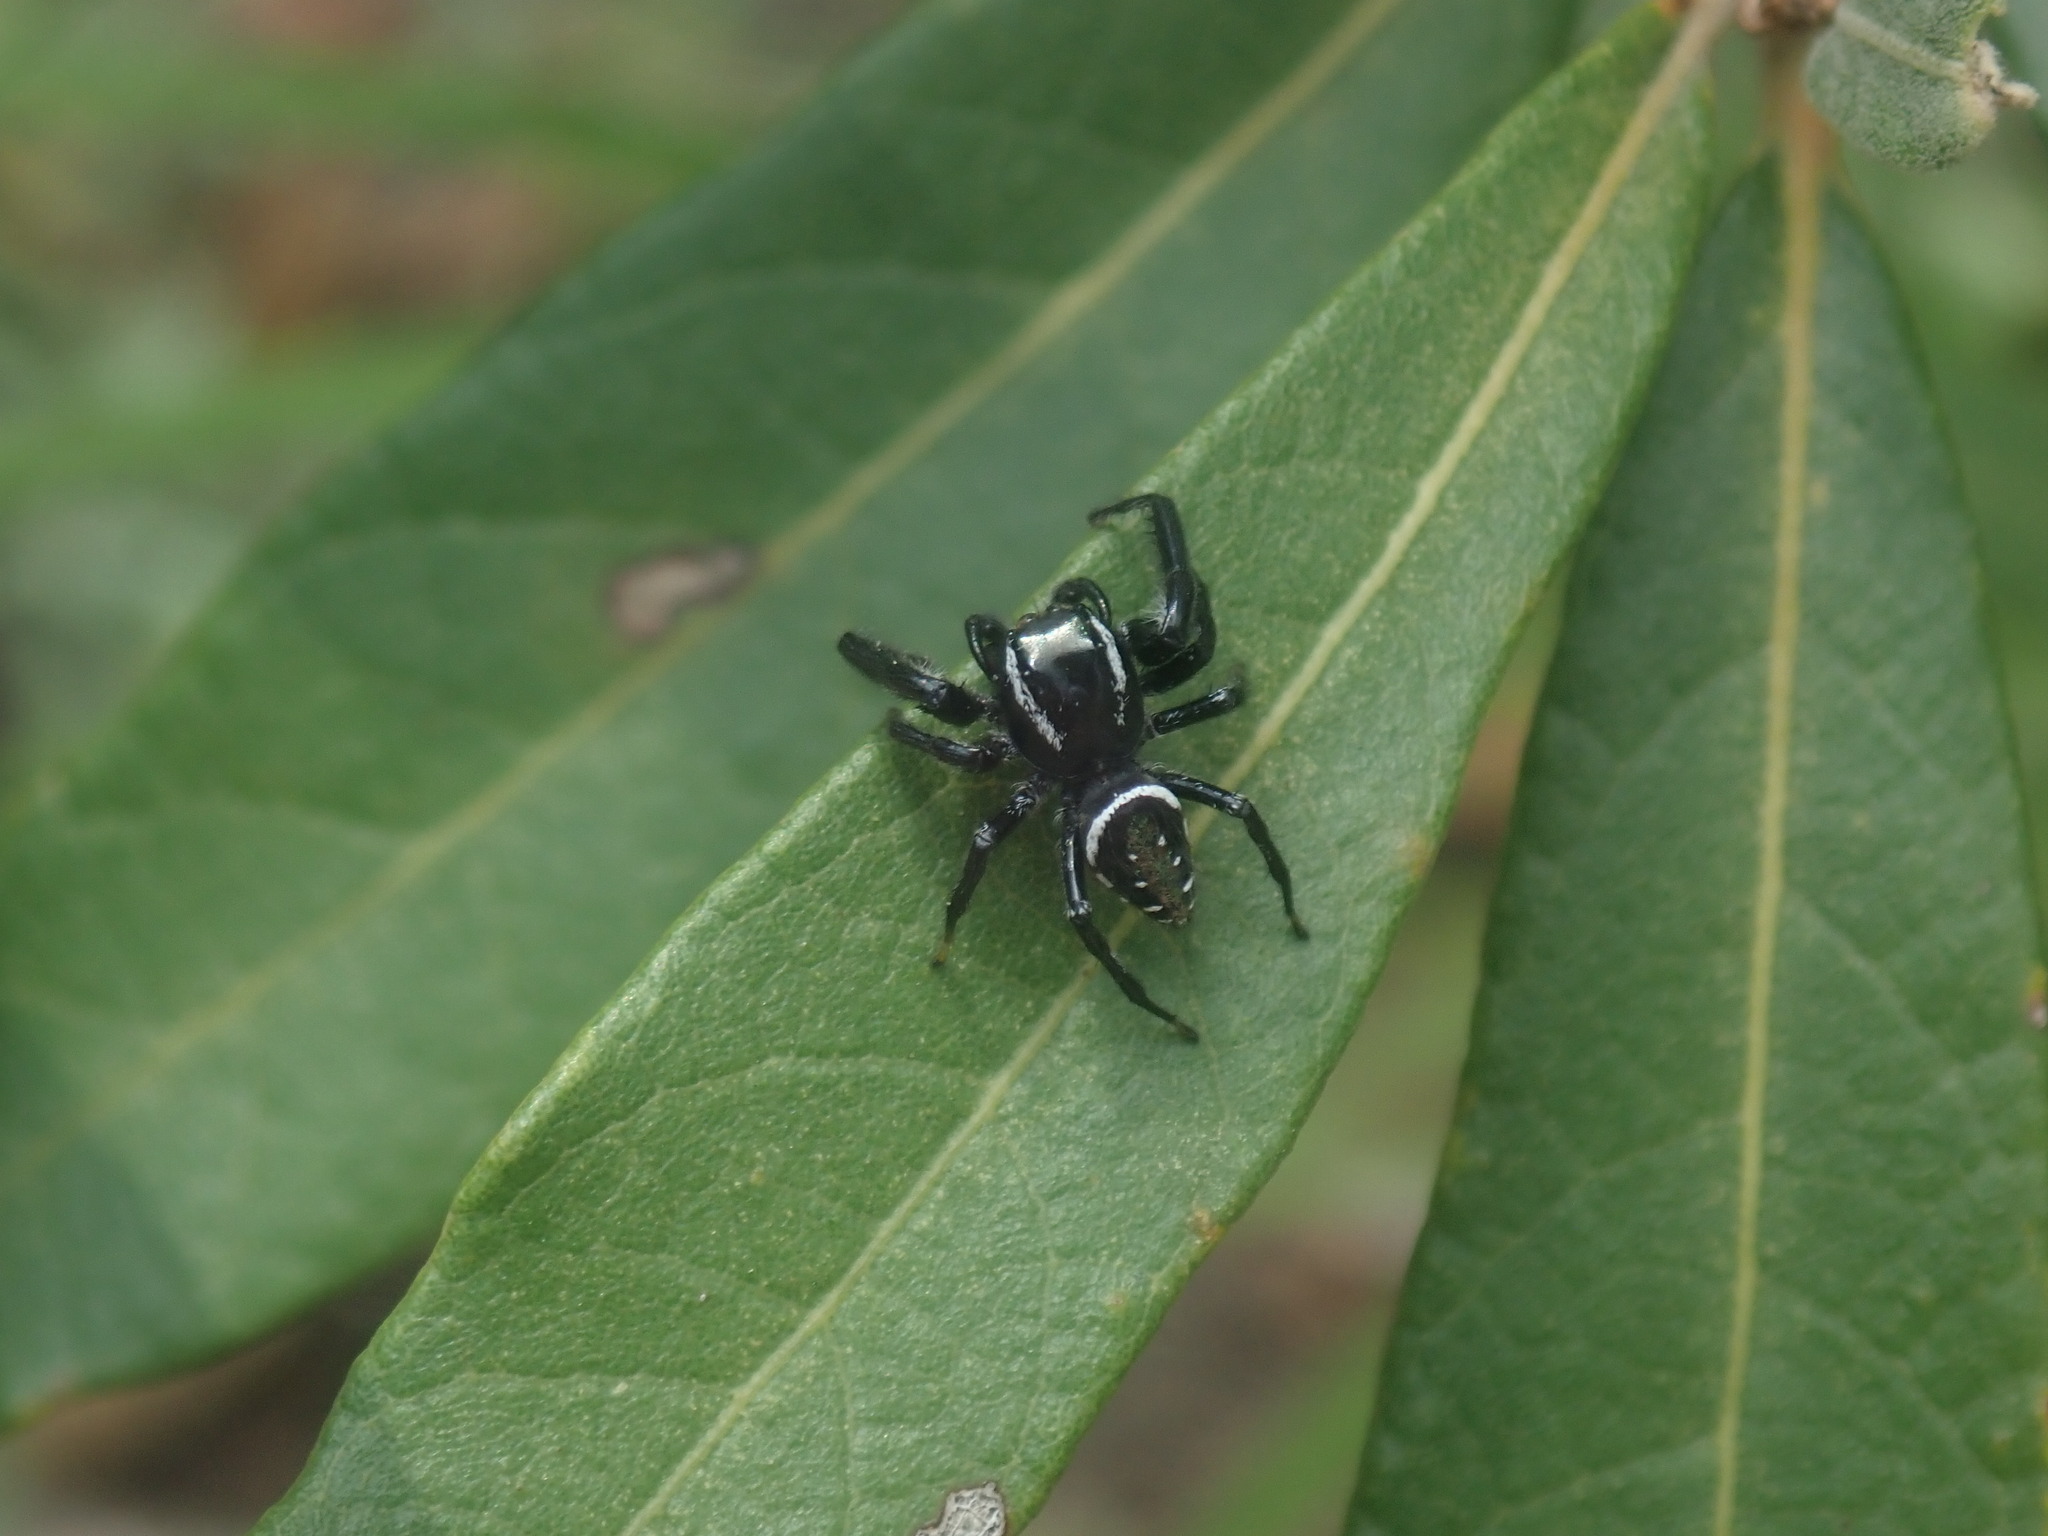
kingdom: Animalia
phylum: Arthropoda
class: Arachnida
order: Araneae
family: Salticidae
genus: Paraphidippus
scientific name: Paraphidippus aurantius
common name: Jumping spiders
